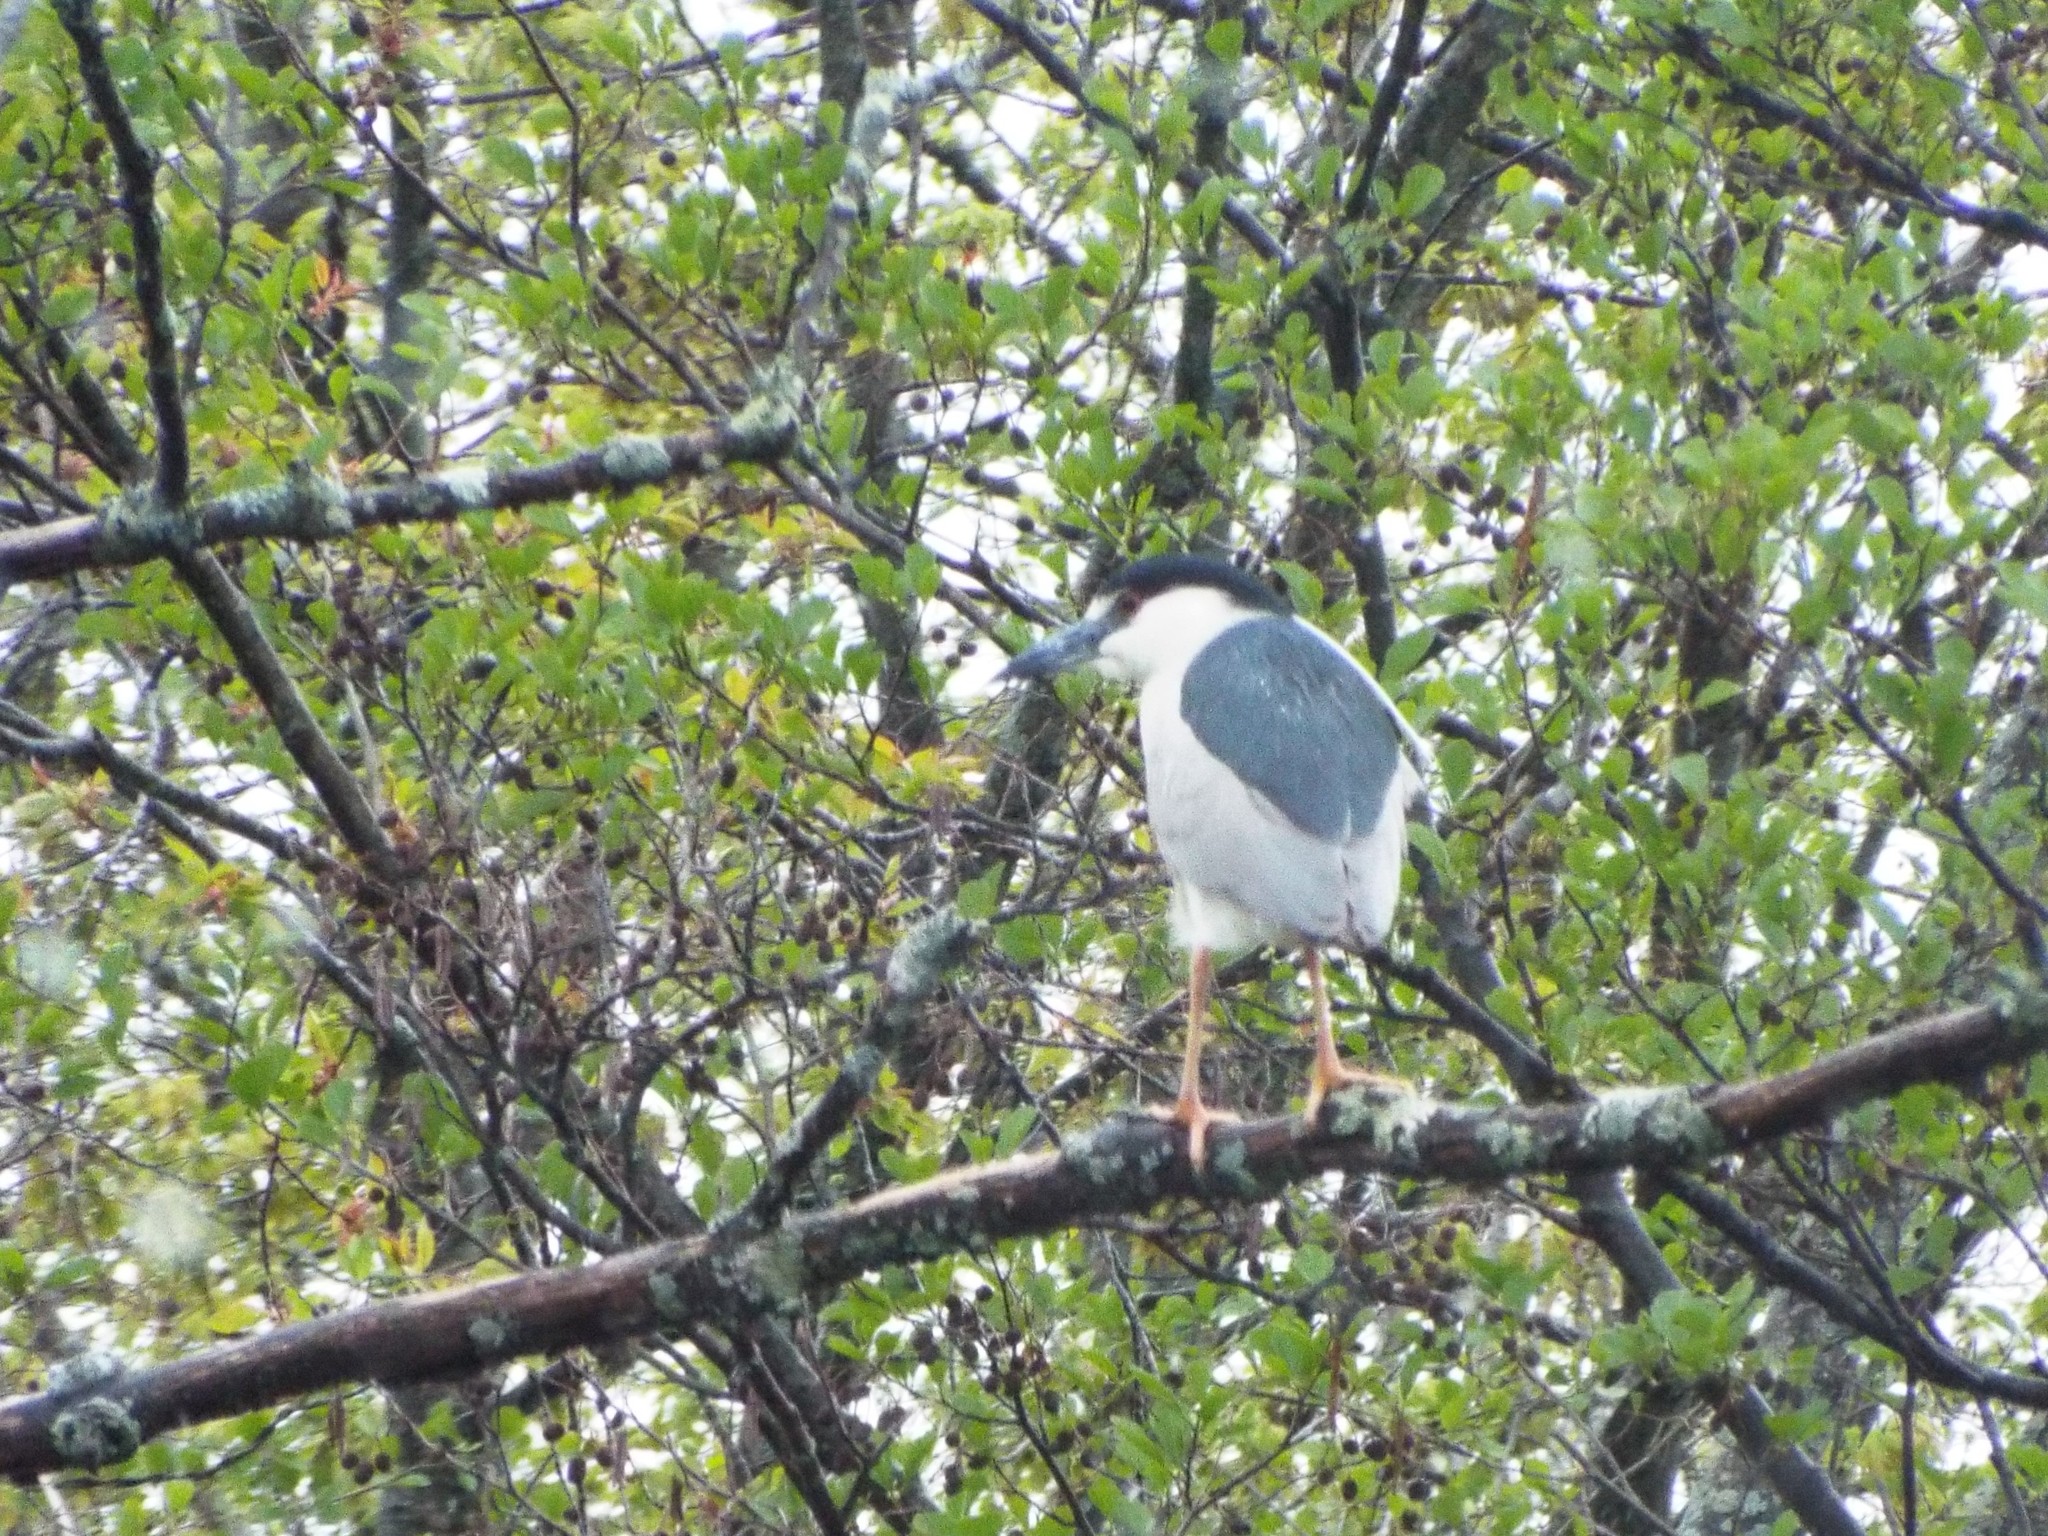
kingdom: Animalia
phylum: Chordata
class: Aves
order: Pelecaniformes
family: Ardeidae
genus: Nycticorax
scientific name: Nycticorax nycticorax
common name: Black-crowned night heron
